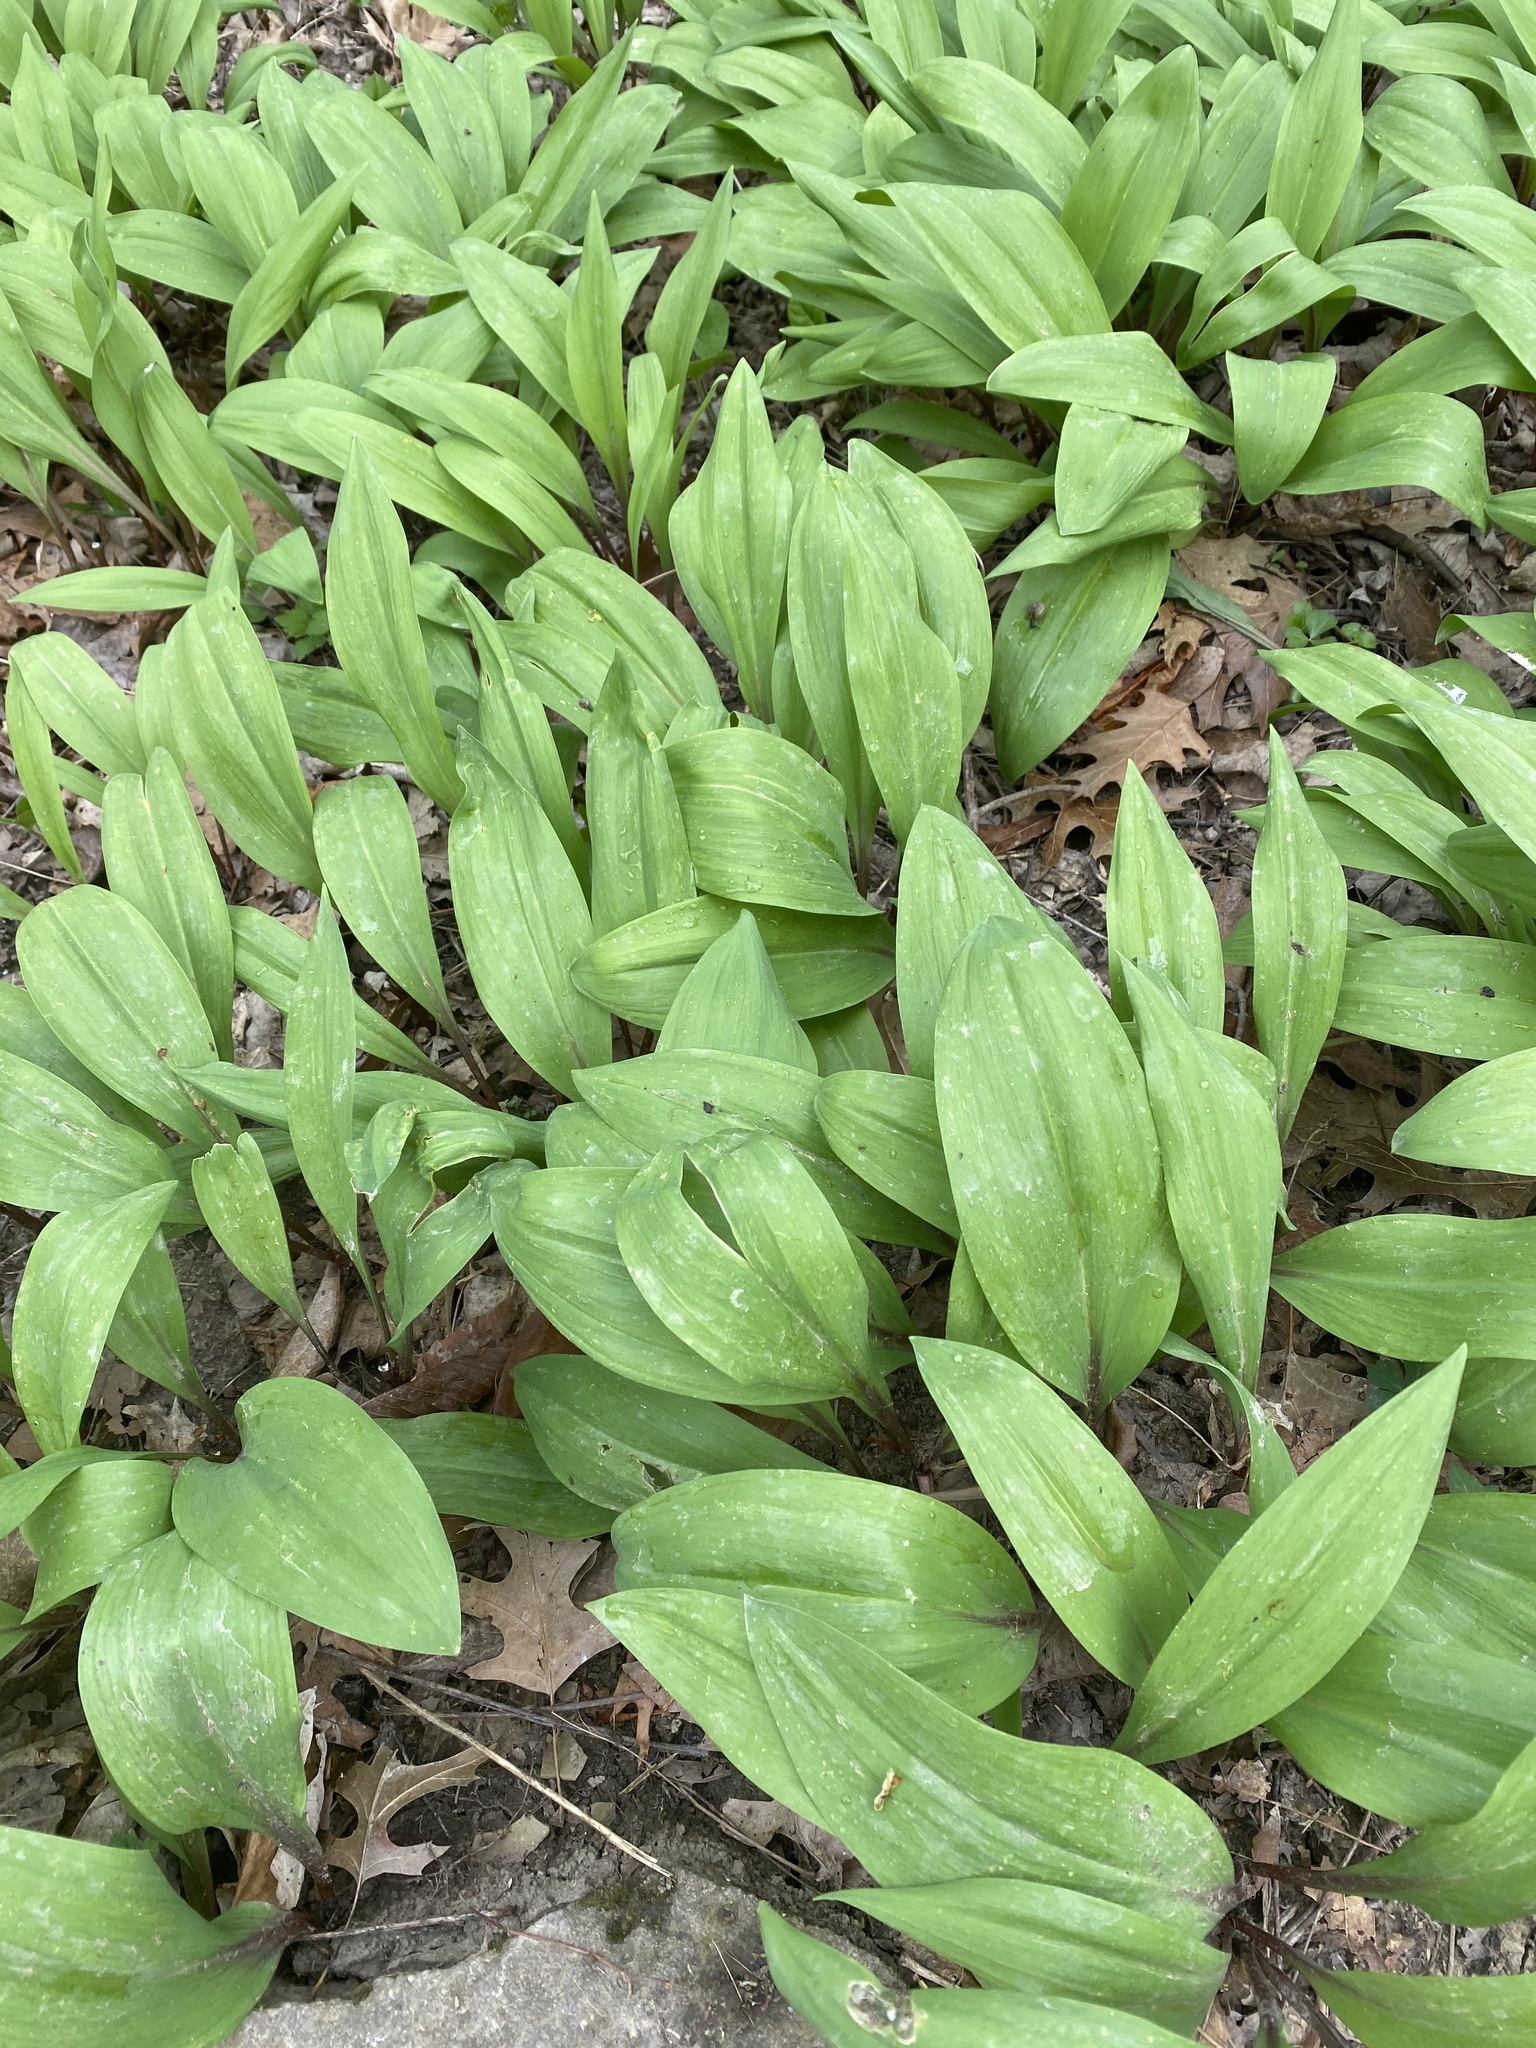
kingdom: Plantae
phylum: Tracheophyta
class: Liliopsida
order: Asparagales
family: Amaryllidaceae
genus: Allium
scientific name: Allium tricoccum
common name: Ramp
